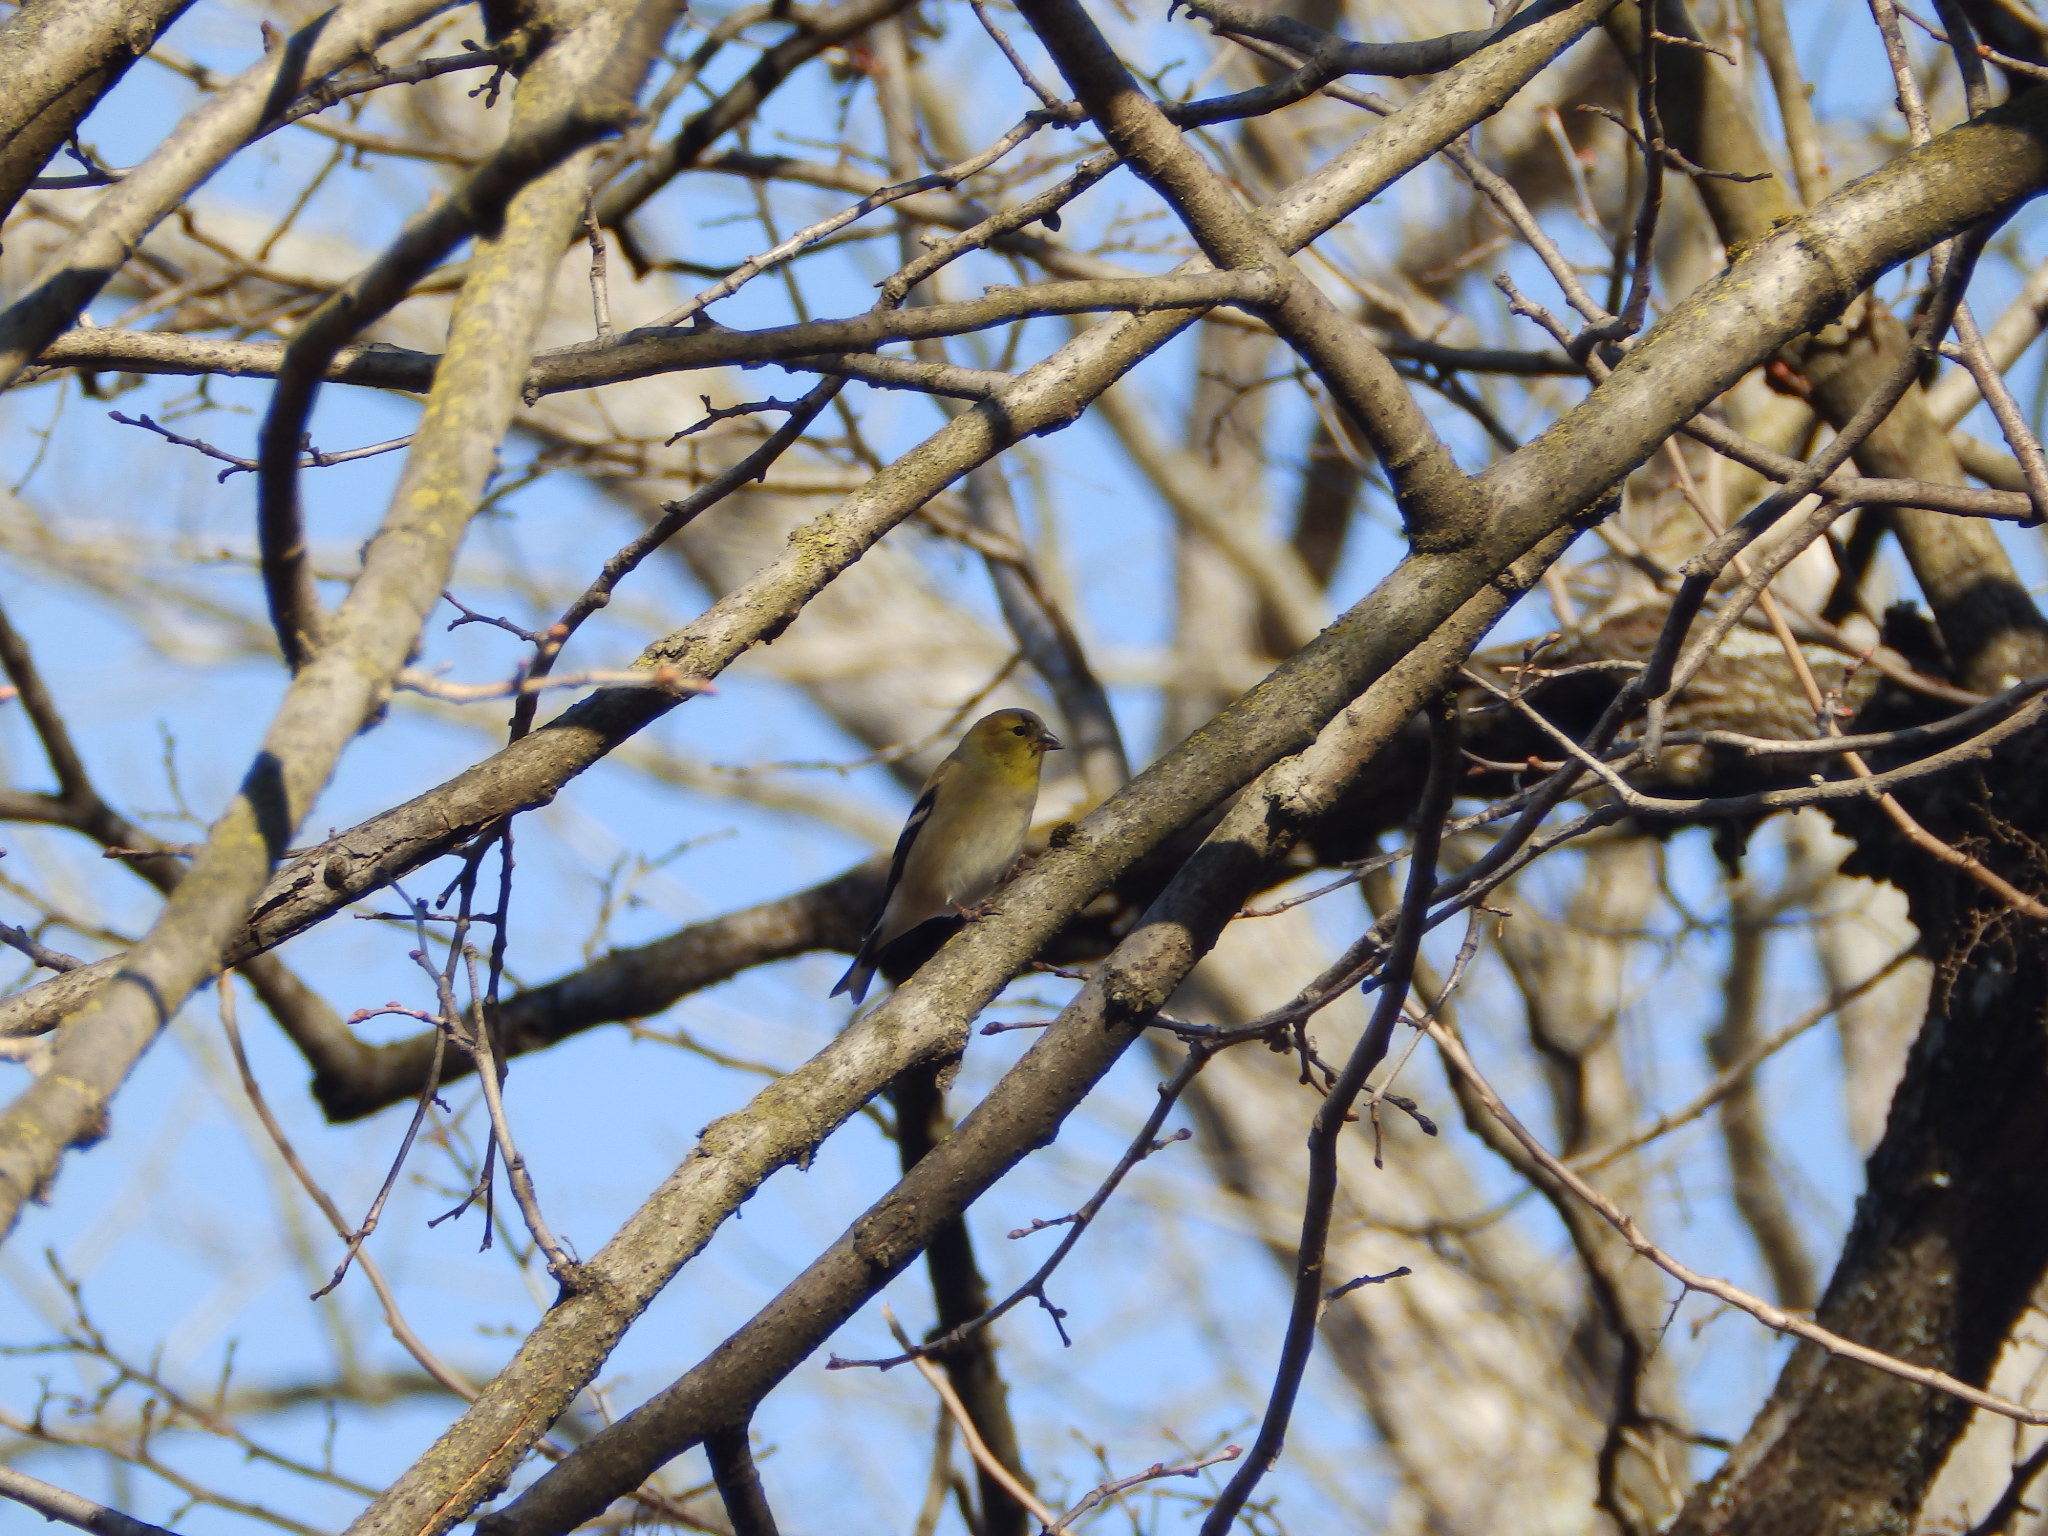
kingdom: Animalia
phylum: Chordata
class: Aves
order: Passeriformes
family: Fringillidae
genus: Spinus
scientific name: Spinus tristis
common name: American goldfinch
